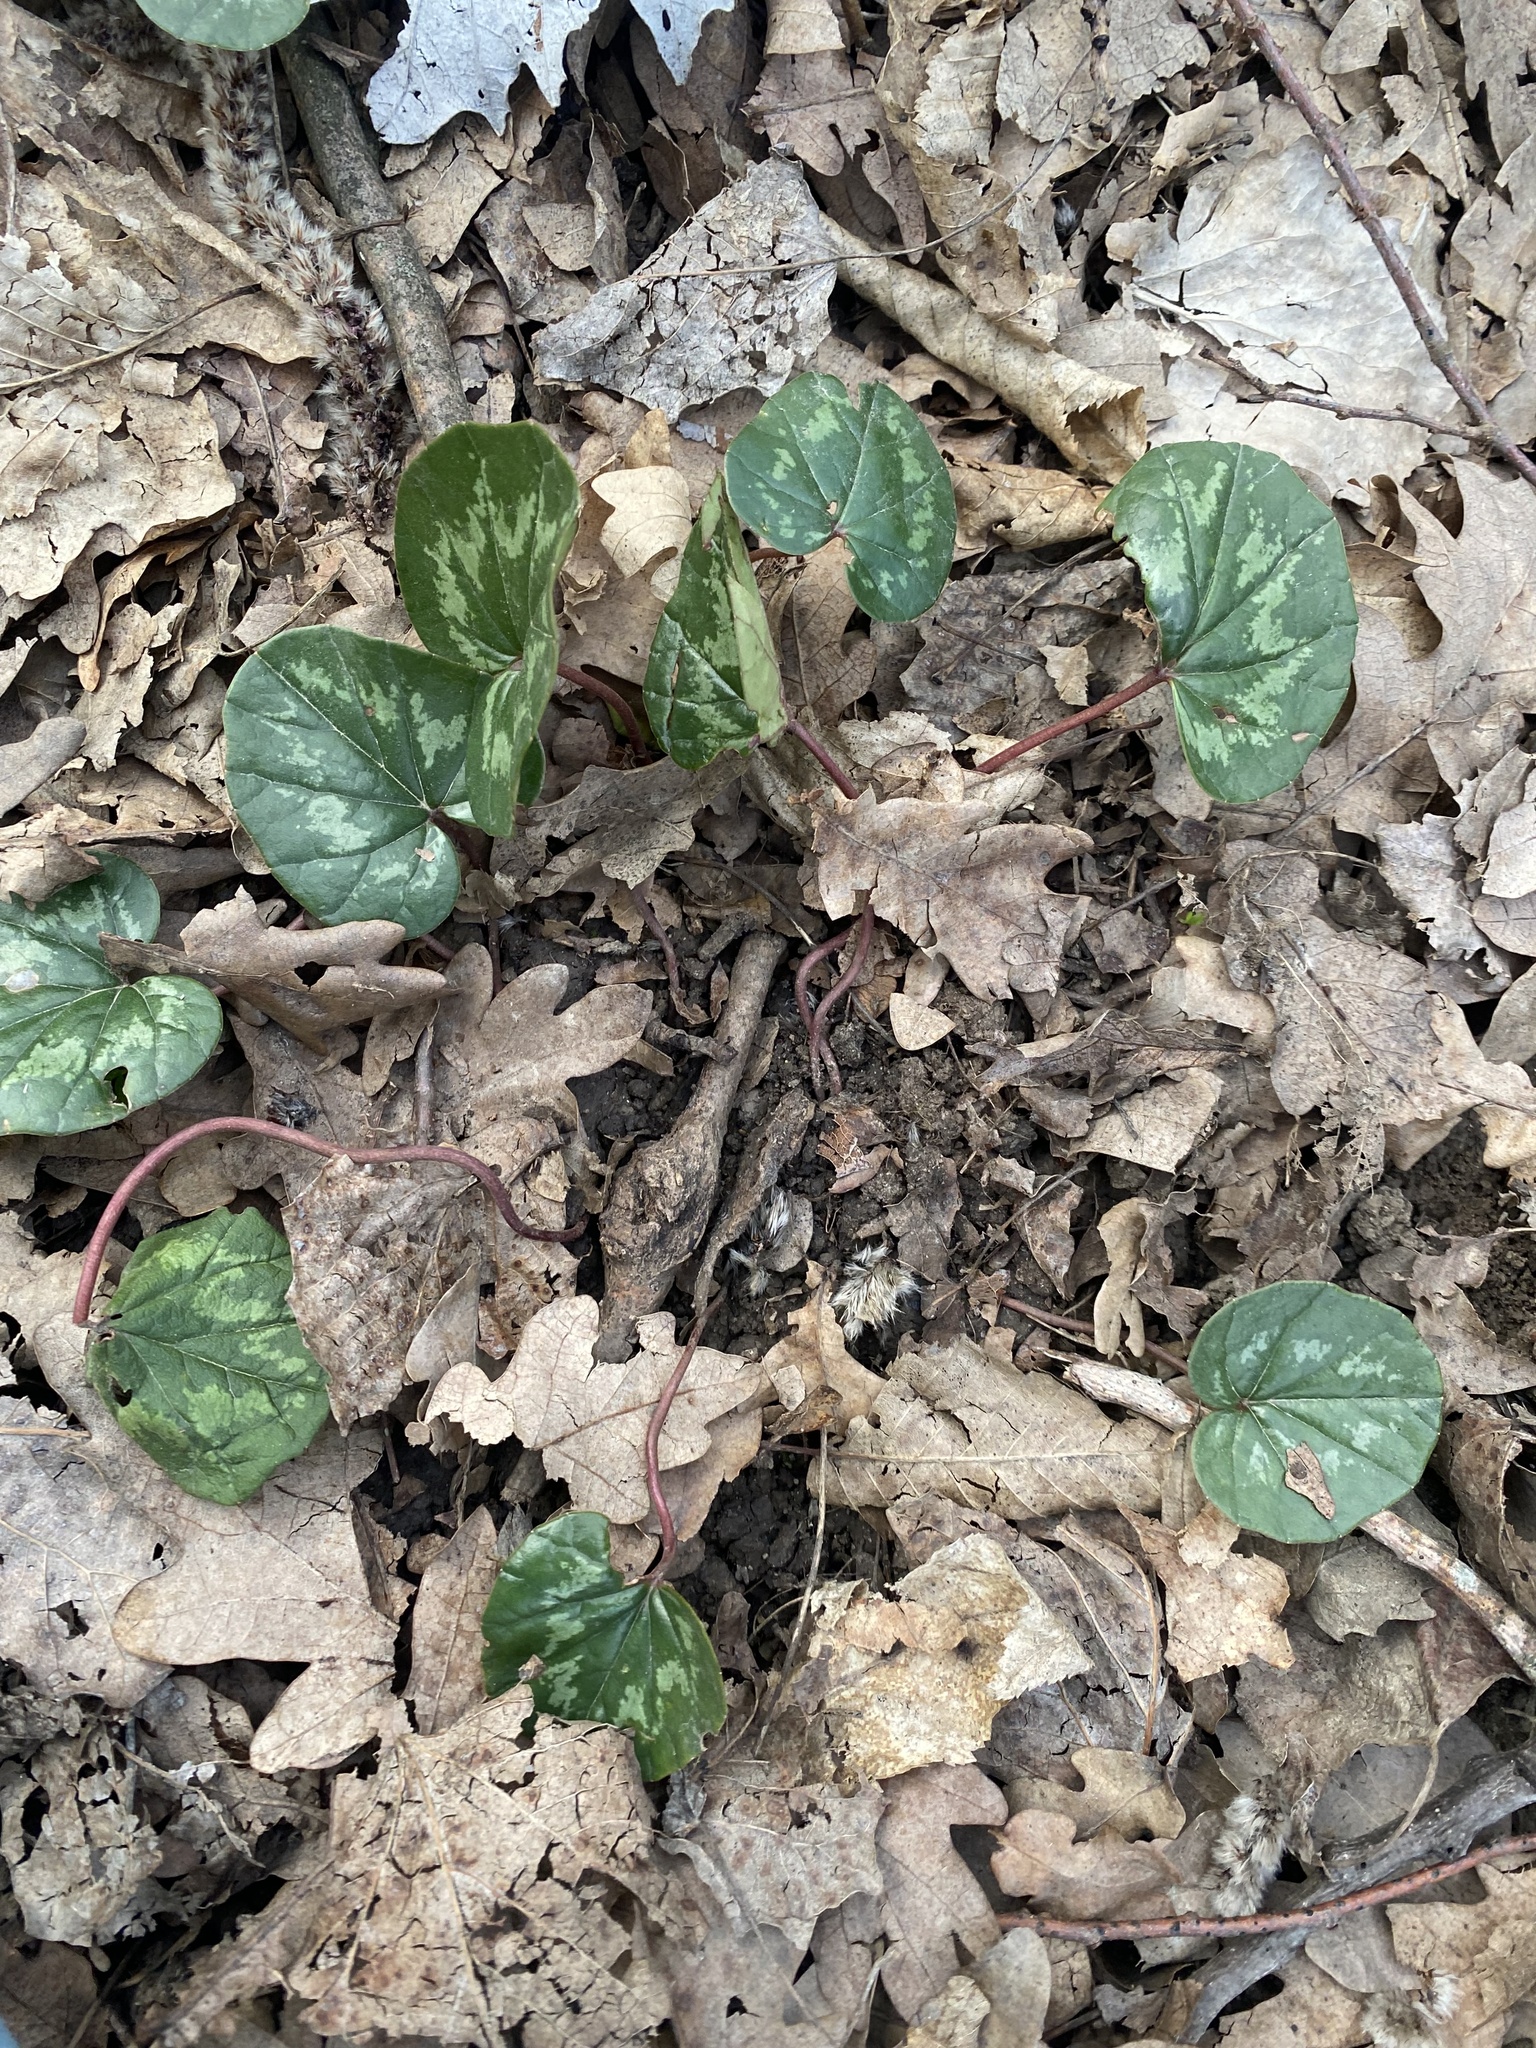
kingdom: Plantae
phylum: Tracheophyta
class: Magnoliopsida
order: Ericales
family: Primulaceae
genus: Cyclamen
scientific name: Cyclamen coum
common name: Eastern sowbread
